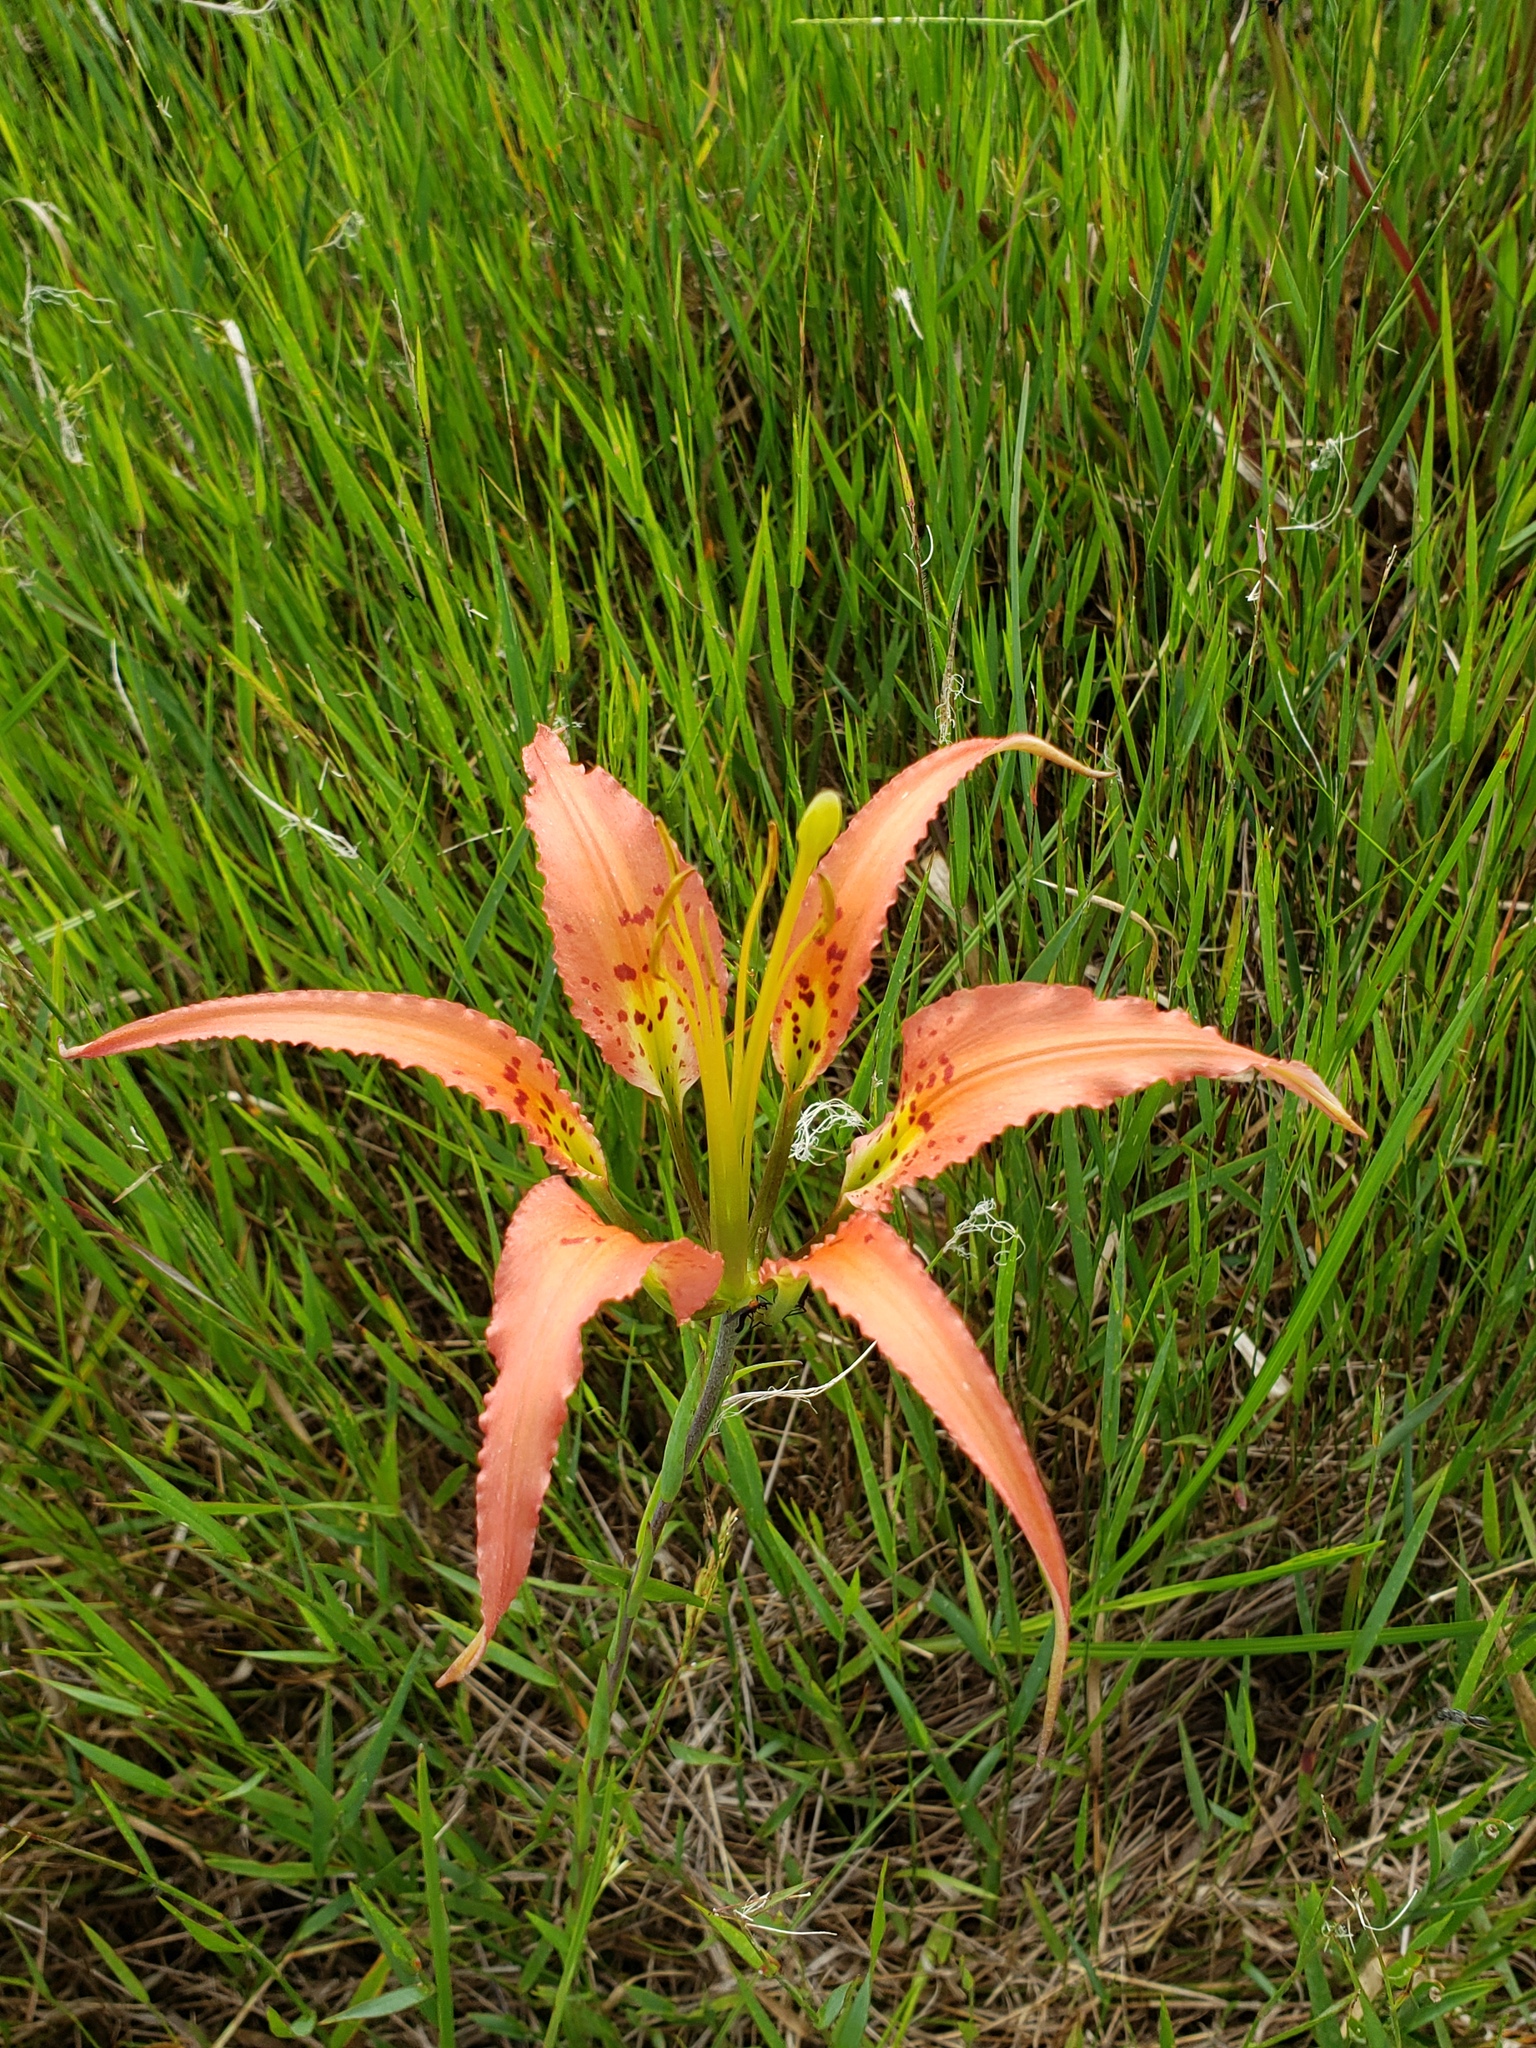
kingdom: Plantae
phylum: Tracheophyta
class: Liliopsida
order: Liliales
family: Liliaceae
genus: Lilium
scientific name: Lilium catesbaei
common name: Catesby's lily
